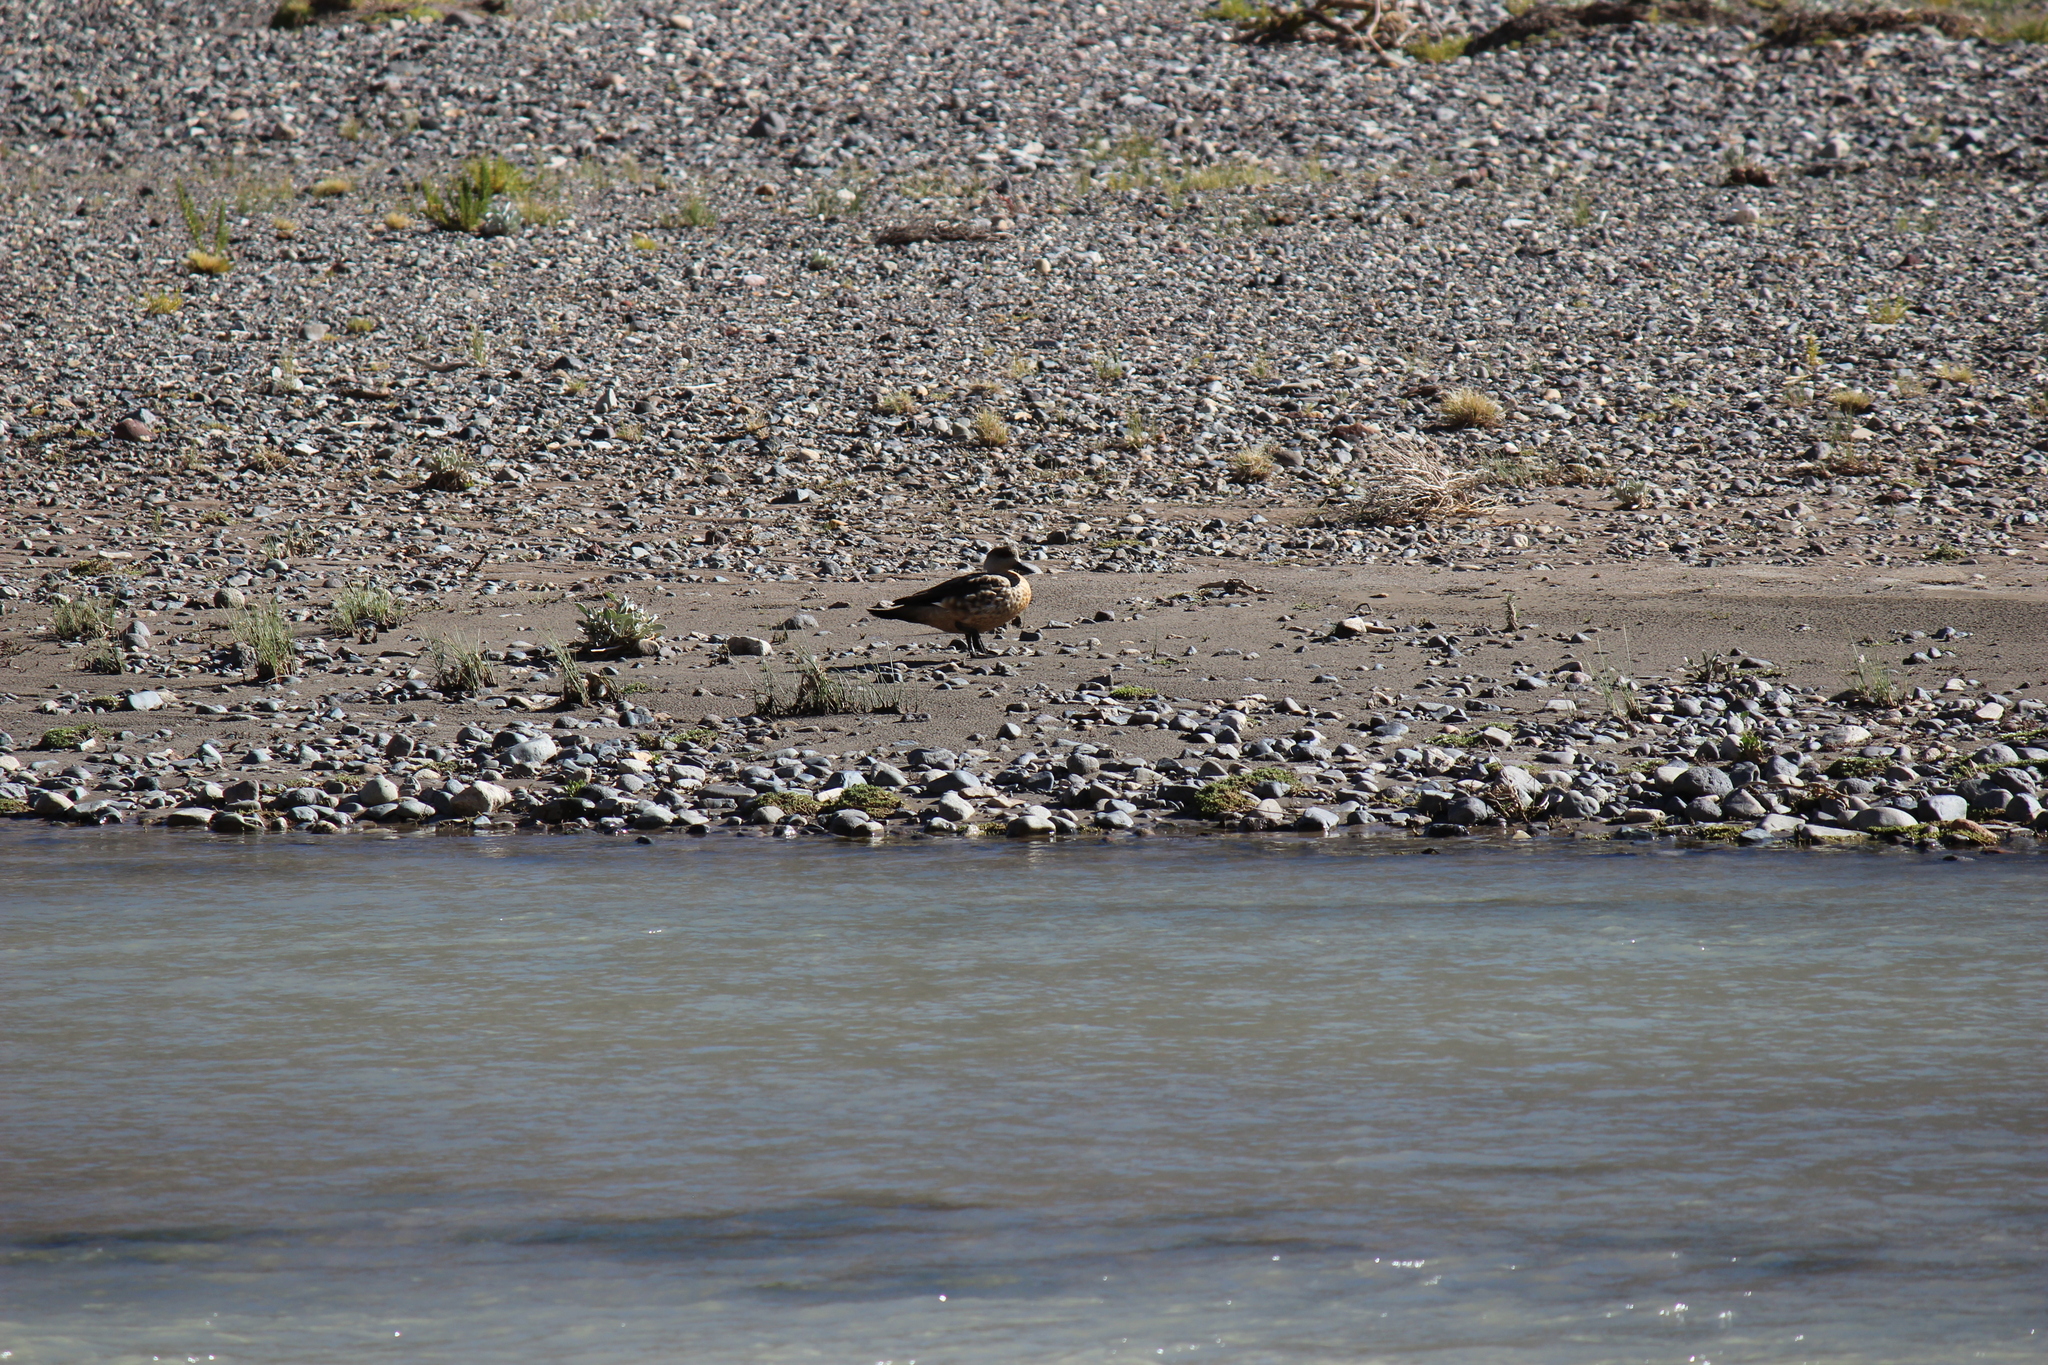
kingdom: Animalia
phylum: Chordata
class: Aves
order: Anseriformes
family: Anatidae
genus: Lophonetta
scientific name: Lophonetta specularioides
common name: Crested duck
